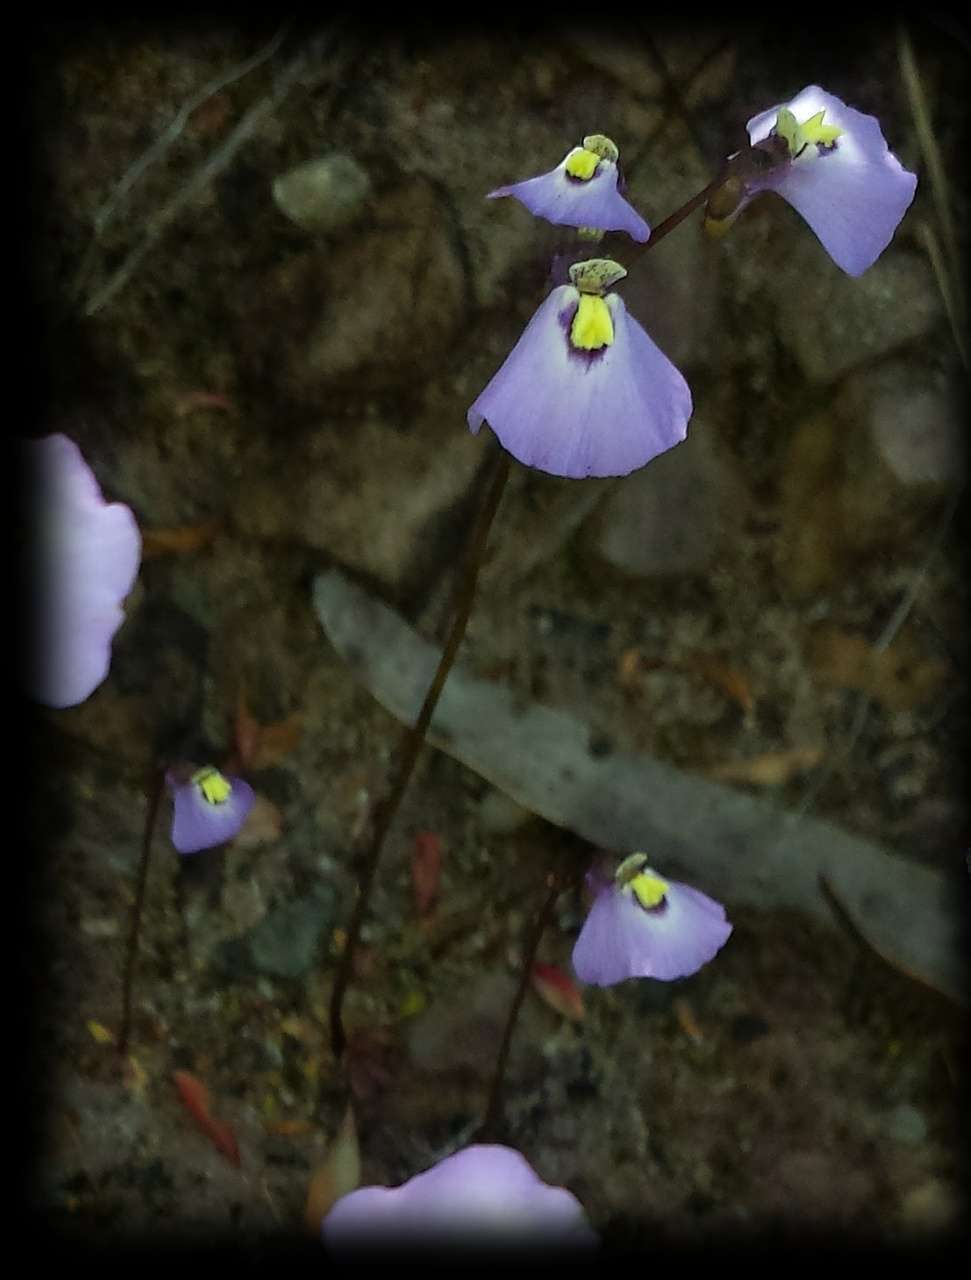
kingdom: Plantae
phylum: Tracheophyta
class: Magnoliopsida
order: Lamiales
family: Lentibulariaceae
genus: Utricularia
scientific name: Utricularia grampiana
